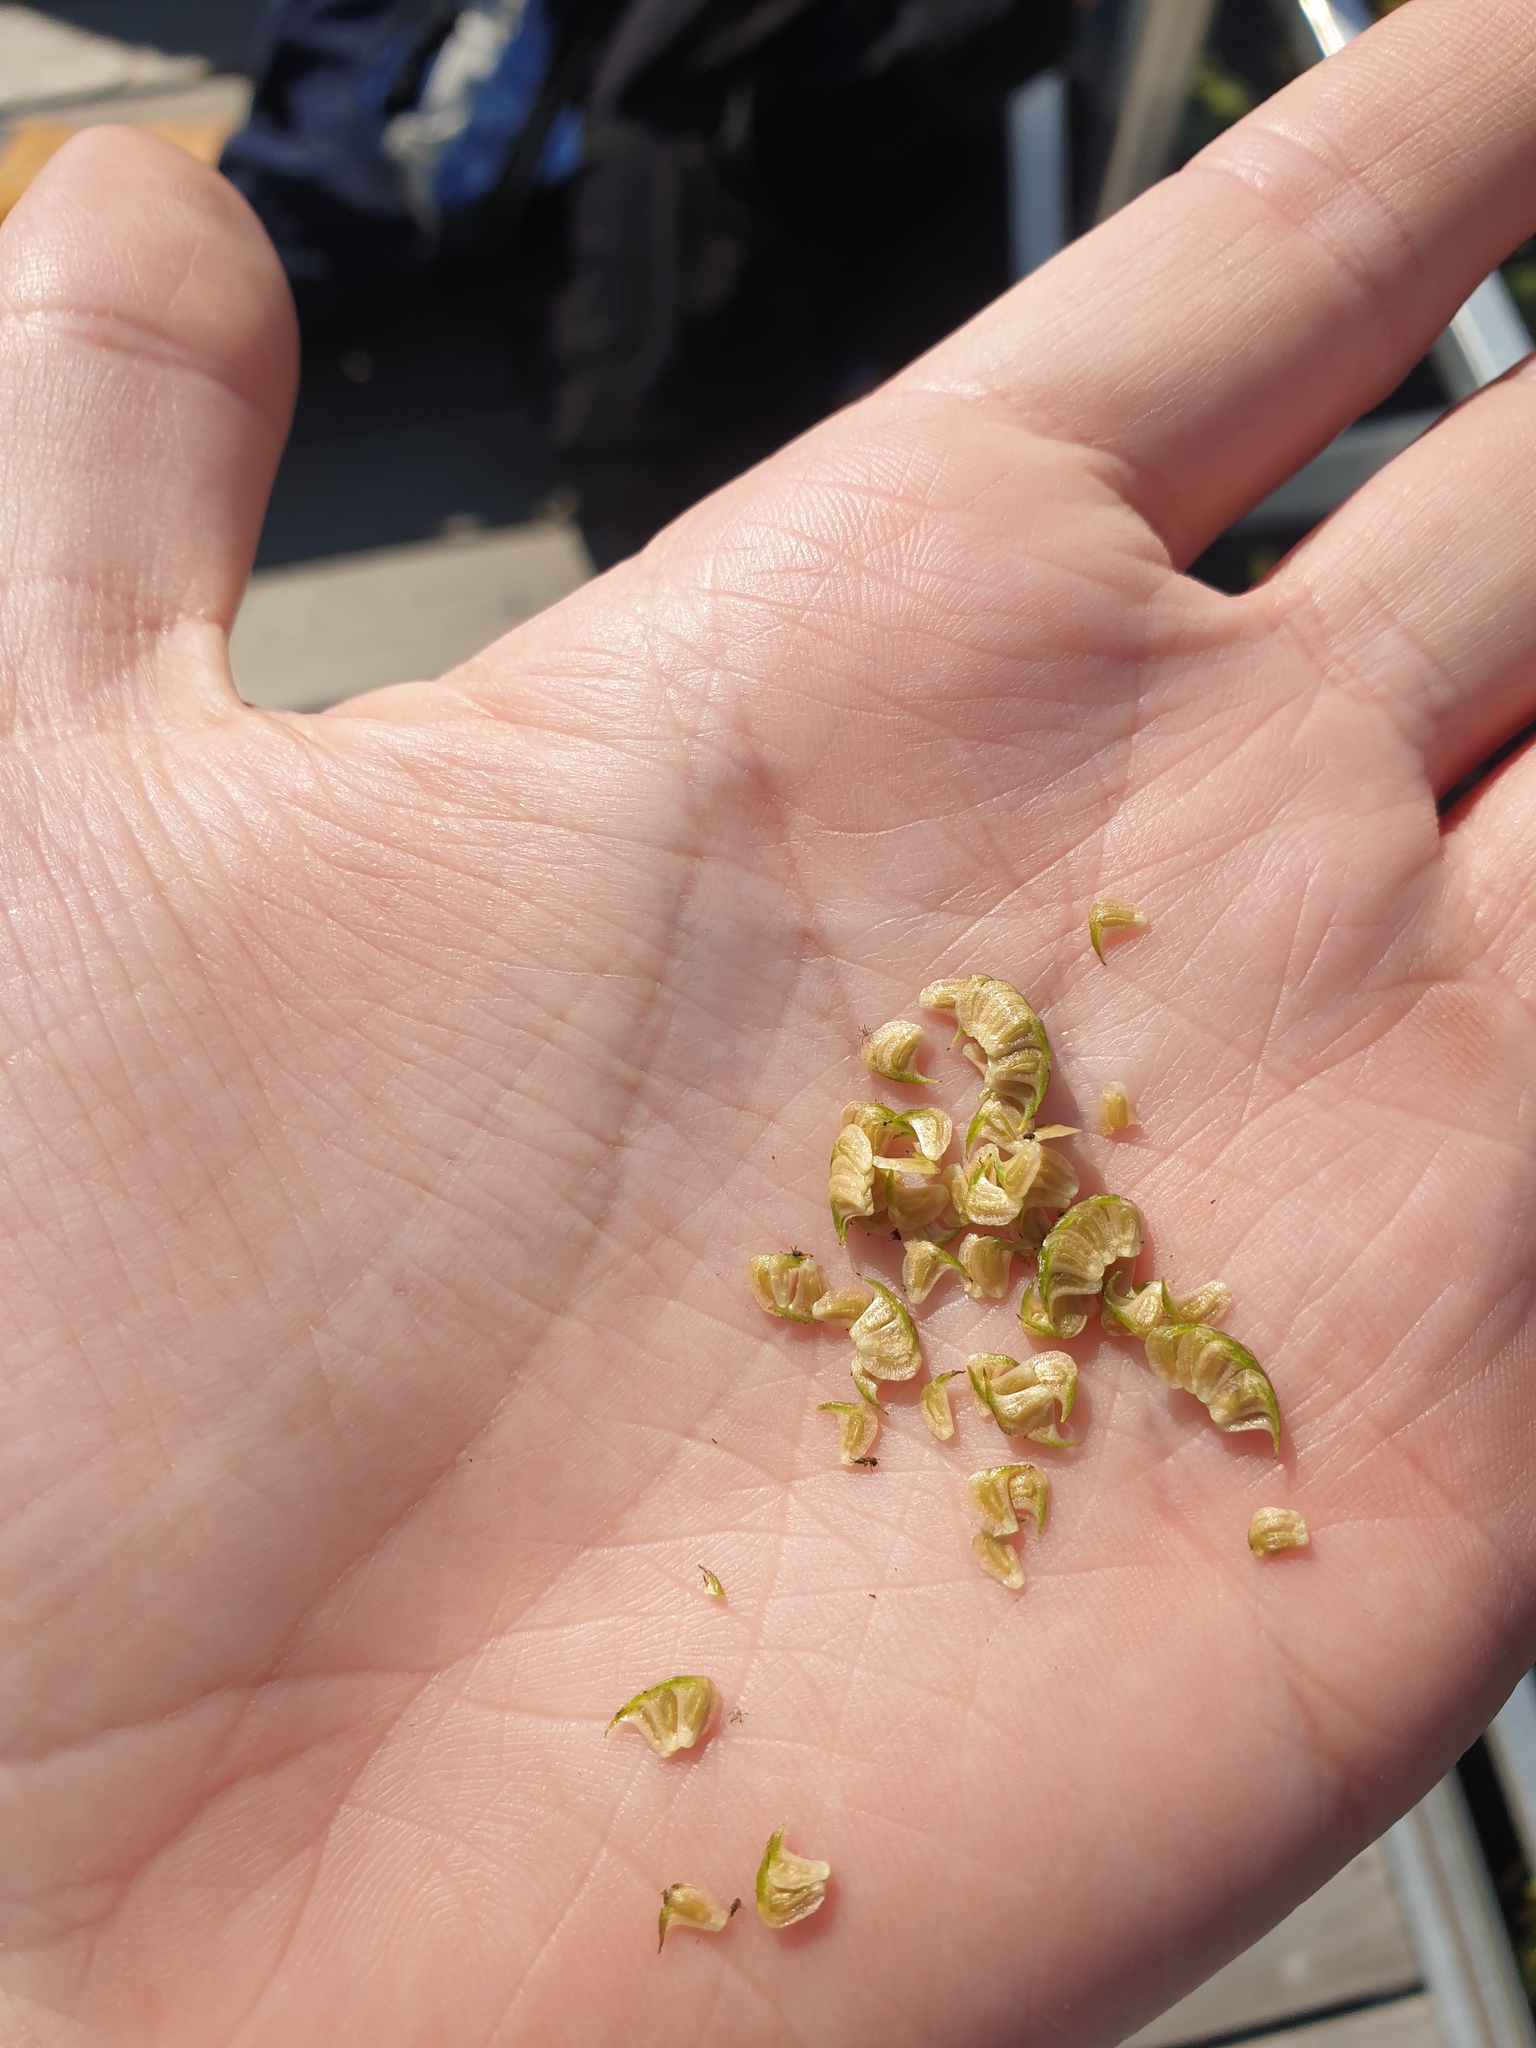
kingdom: Plantae
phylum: Tracheophyta
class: Liliopsida
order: Alismatales
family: Alismataceae
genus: Sagittaria
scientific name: Sagittaria latifolia
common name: Duck-potato
